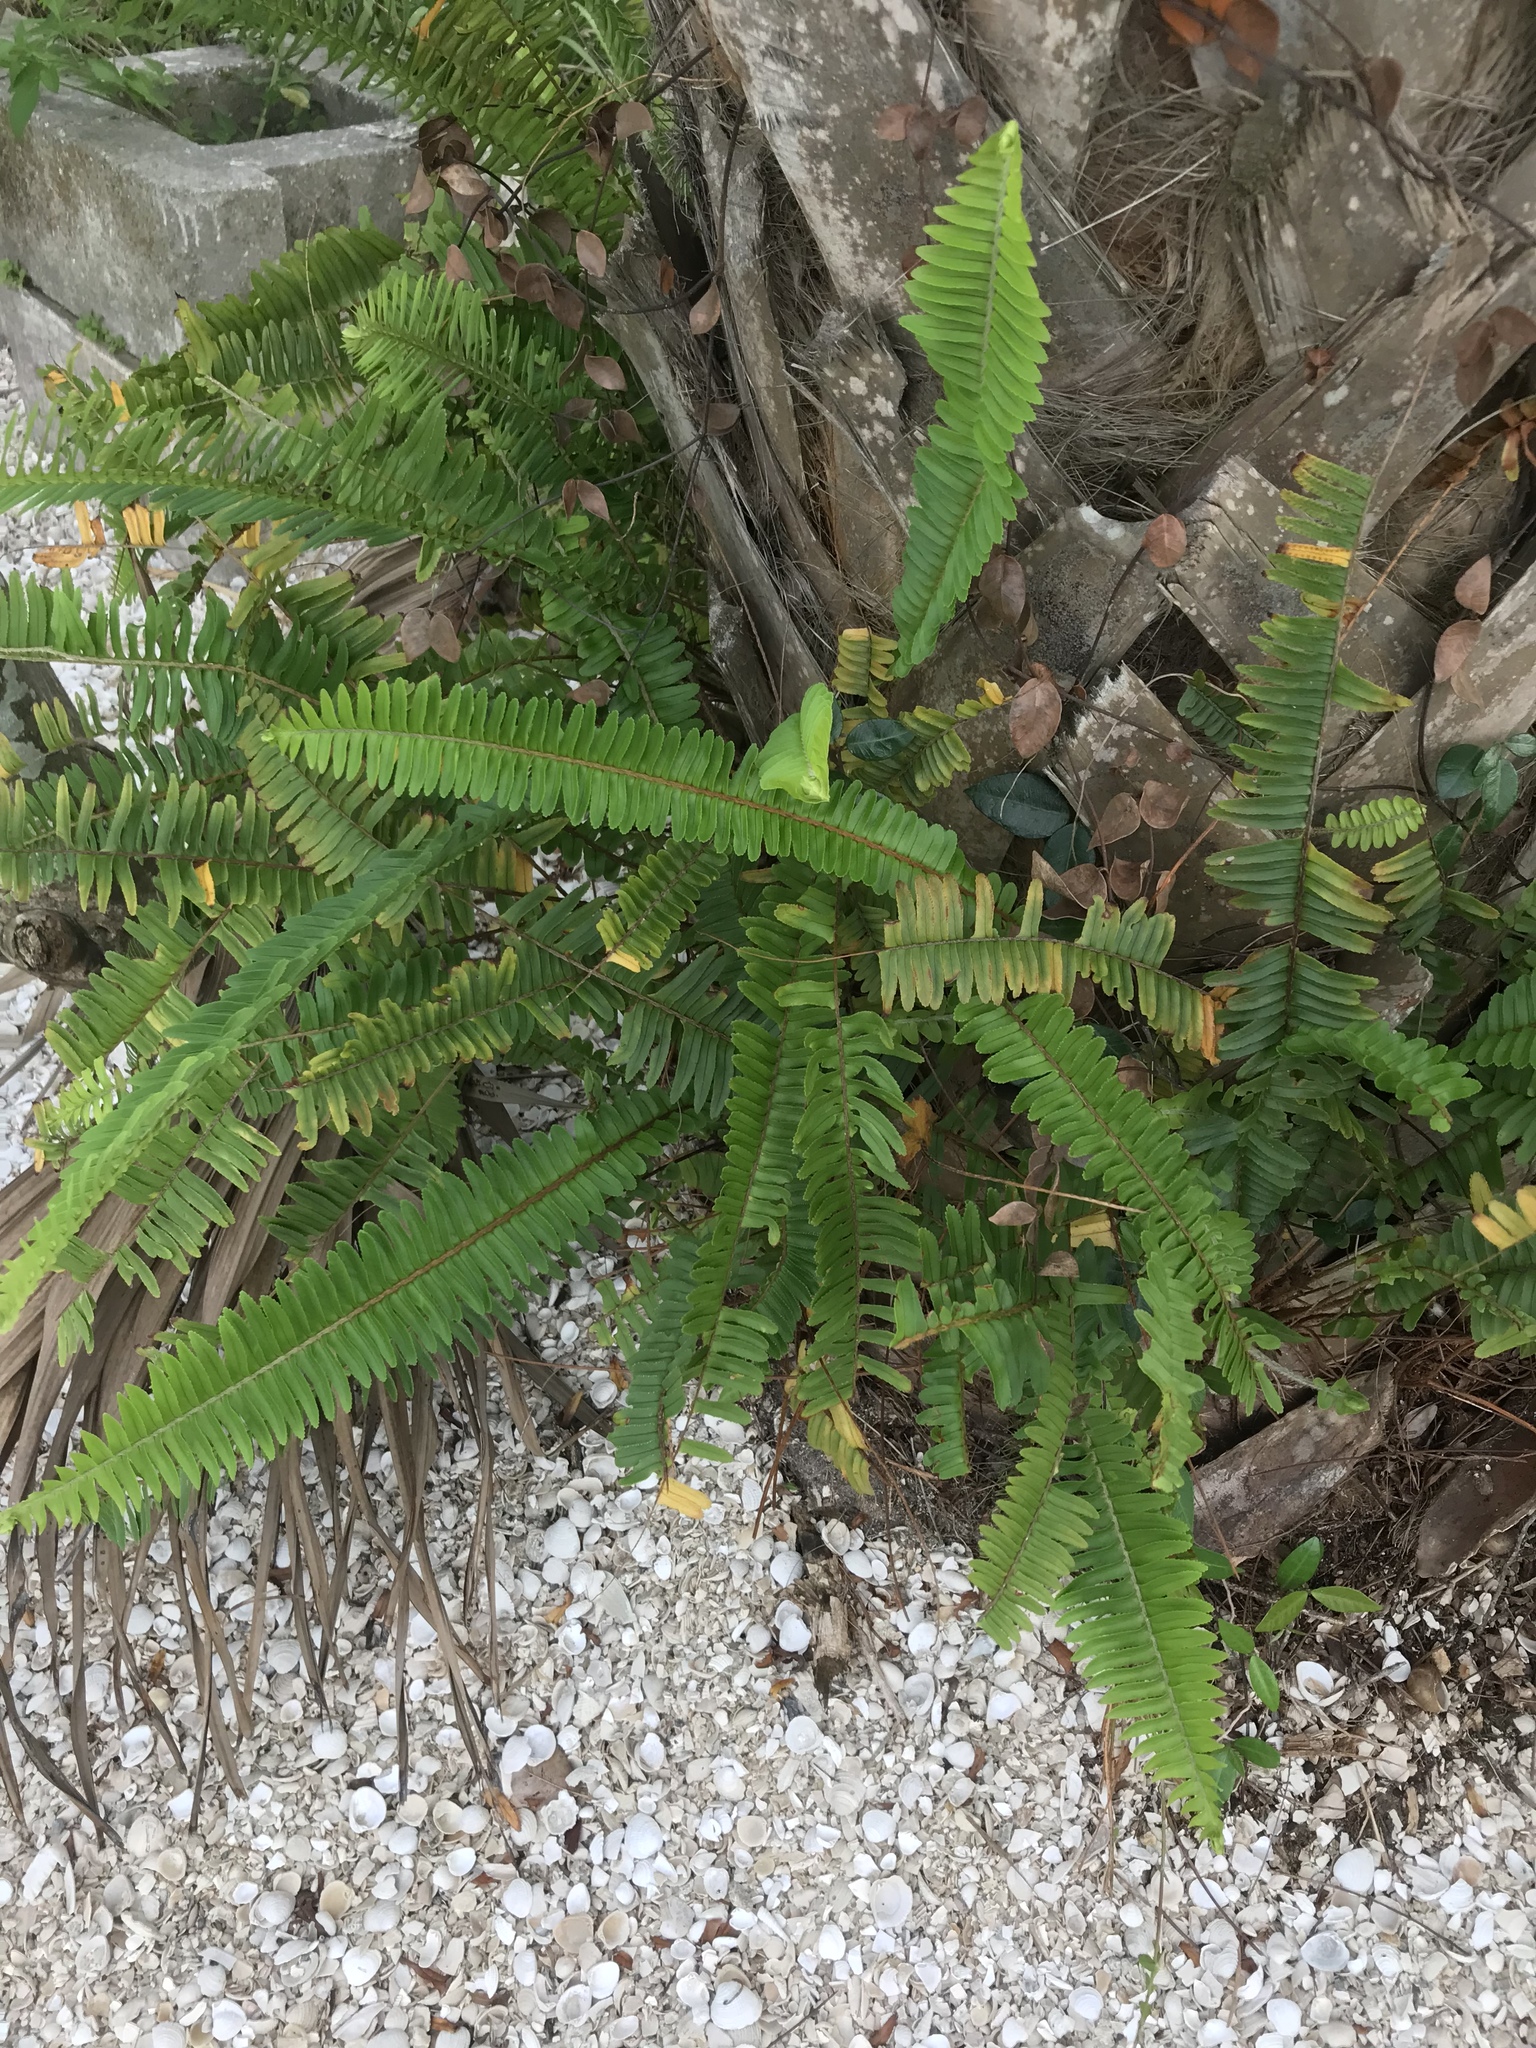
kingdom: Plantae
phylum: Tracheophyta
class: Polypodiopsida
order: Polypodiales
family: Nephrolepidaceae
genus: Nephrolepis
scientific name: Nephrolepis cordifolia
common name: Narrow swordfern
